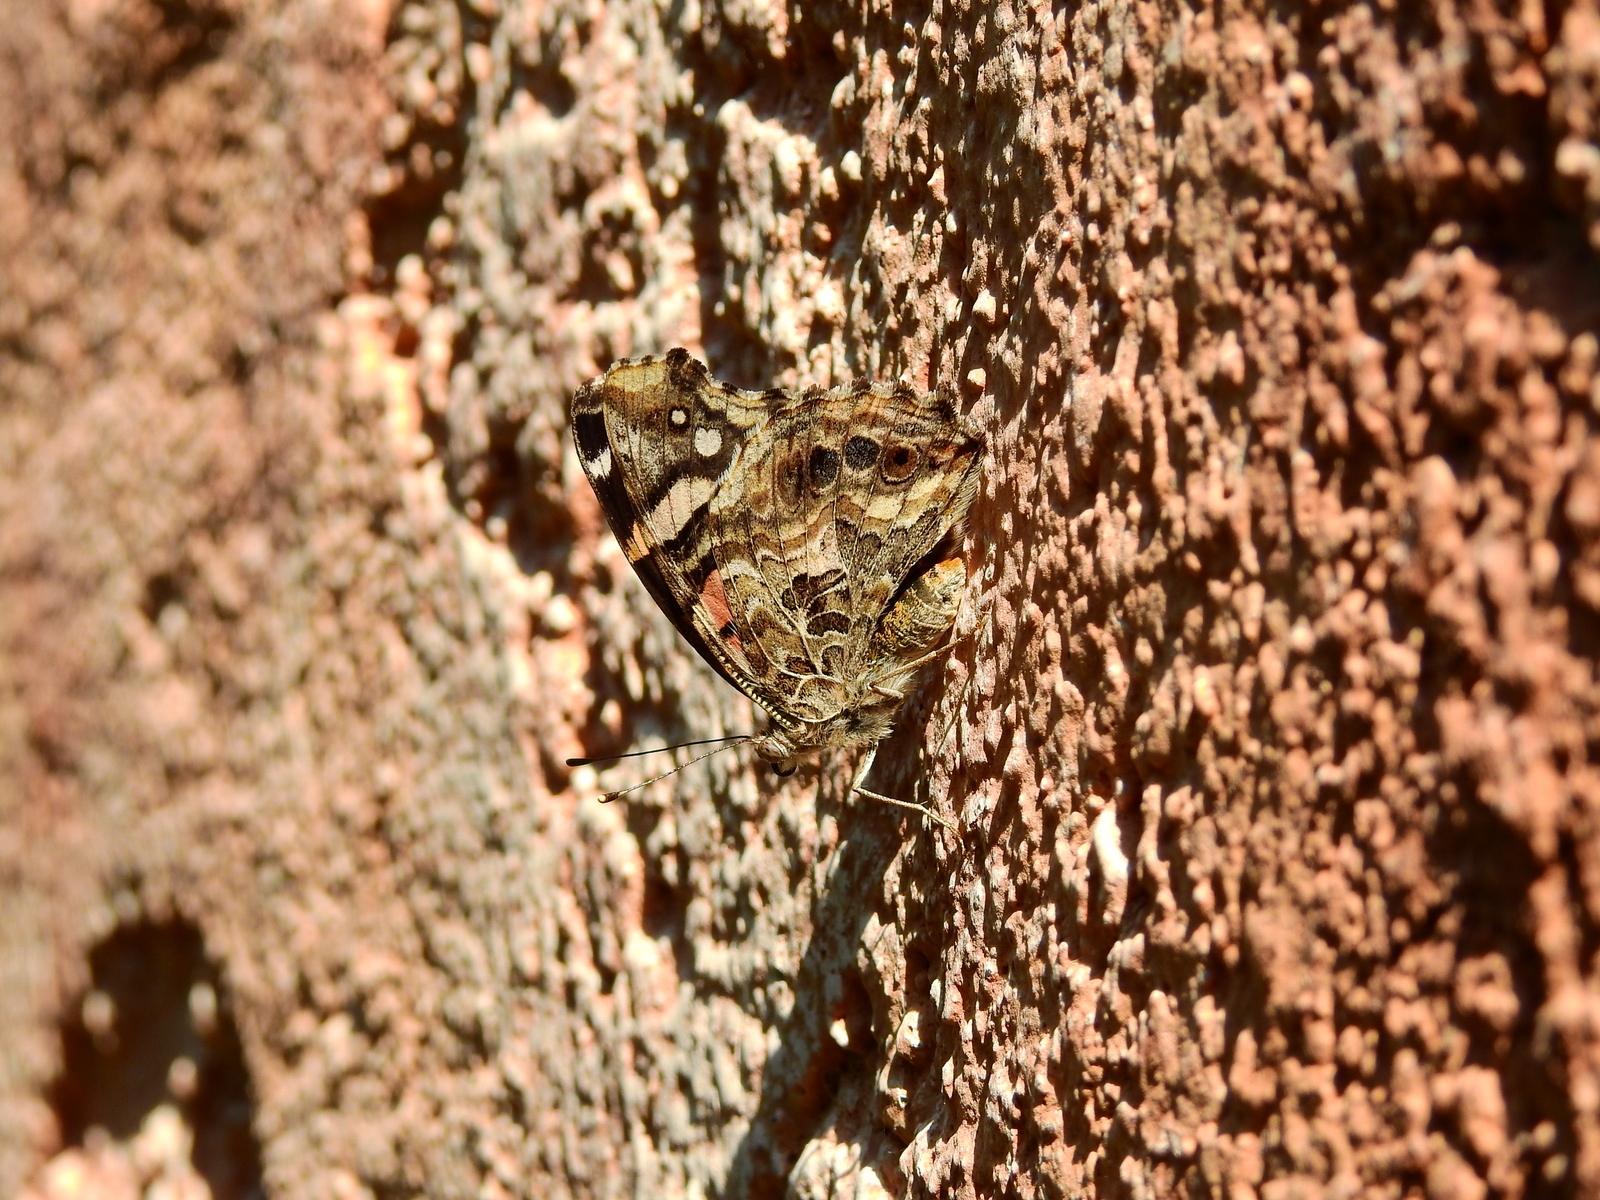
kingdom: Animalia
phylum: Arthropoda
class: Insecta
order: Lepidoptera
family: Nymphalidae
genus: Vanessa
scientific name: Vanessa carye
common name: Subtropical lady
